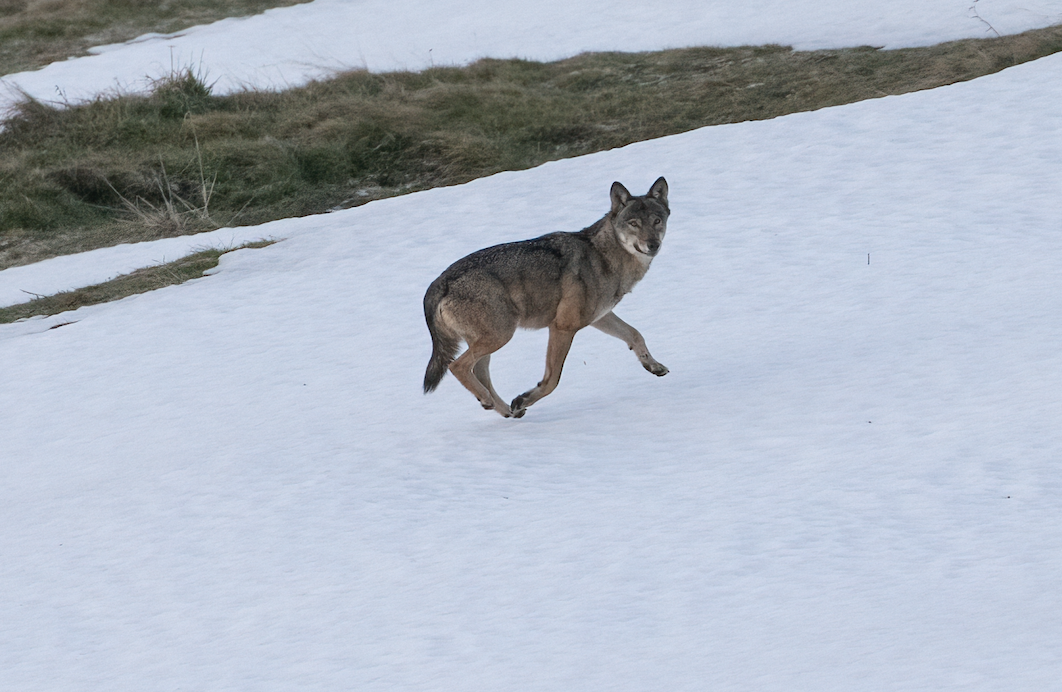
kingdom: Animalia
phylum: Chordata
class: Mammalia
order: Carnivora
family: Canidae
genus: Canis
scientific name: Canis lupus
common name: Gray wolf
